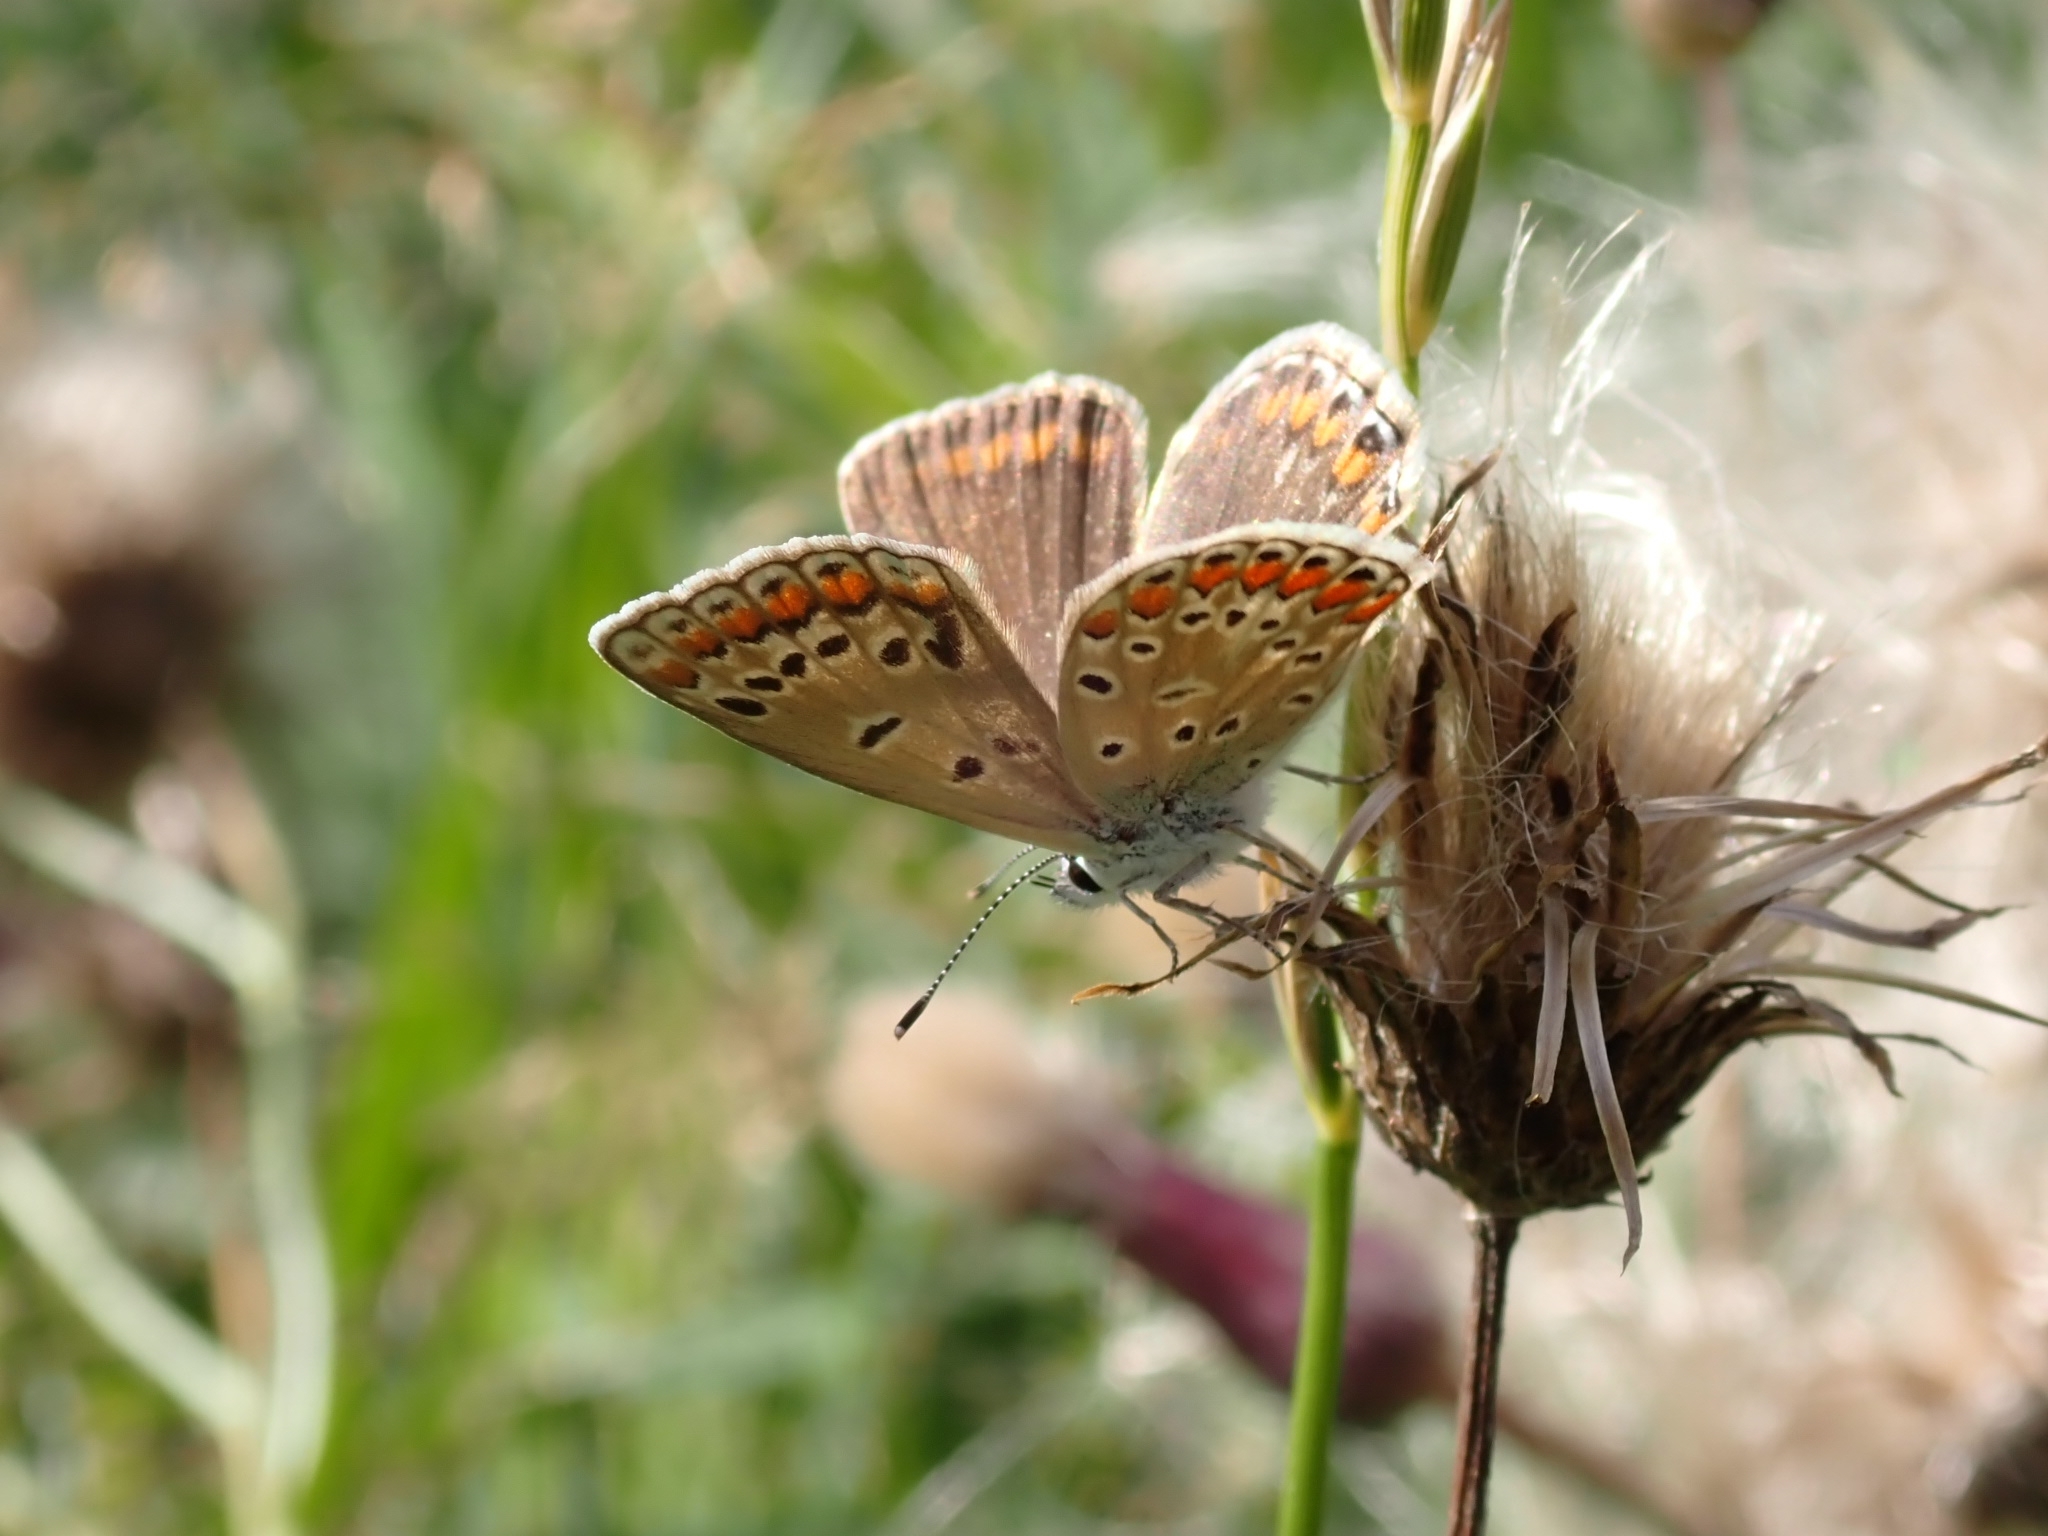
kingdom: Animalia
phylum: Arthropoda
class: Insecta
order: Lepidoptera
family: Lycaenidae
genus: Polyommatus
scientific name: Polyommatus icarus
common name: Common blue
